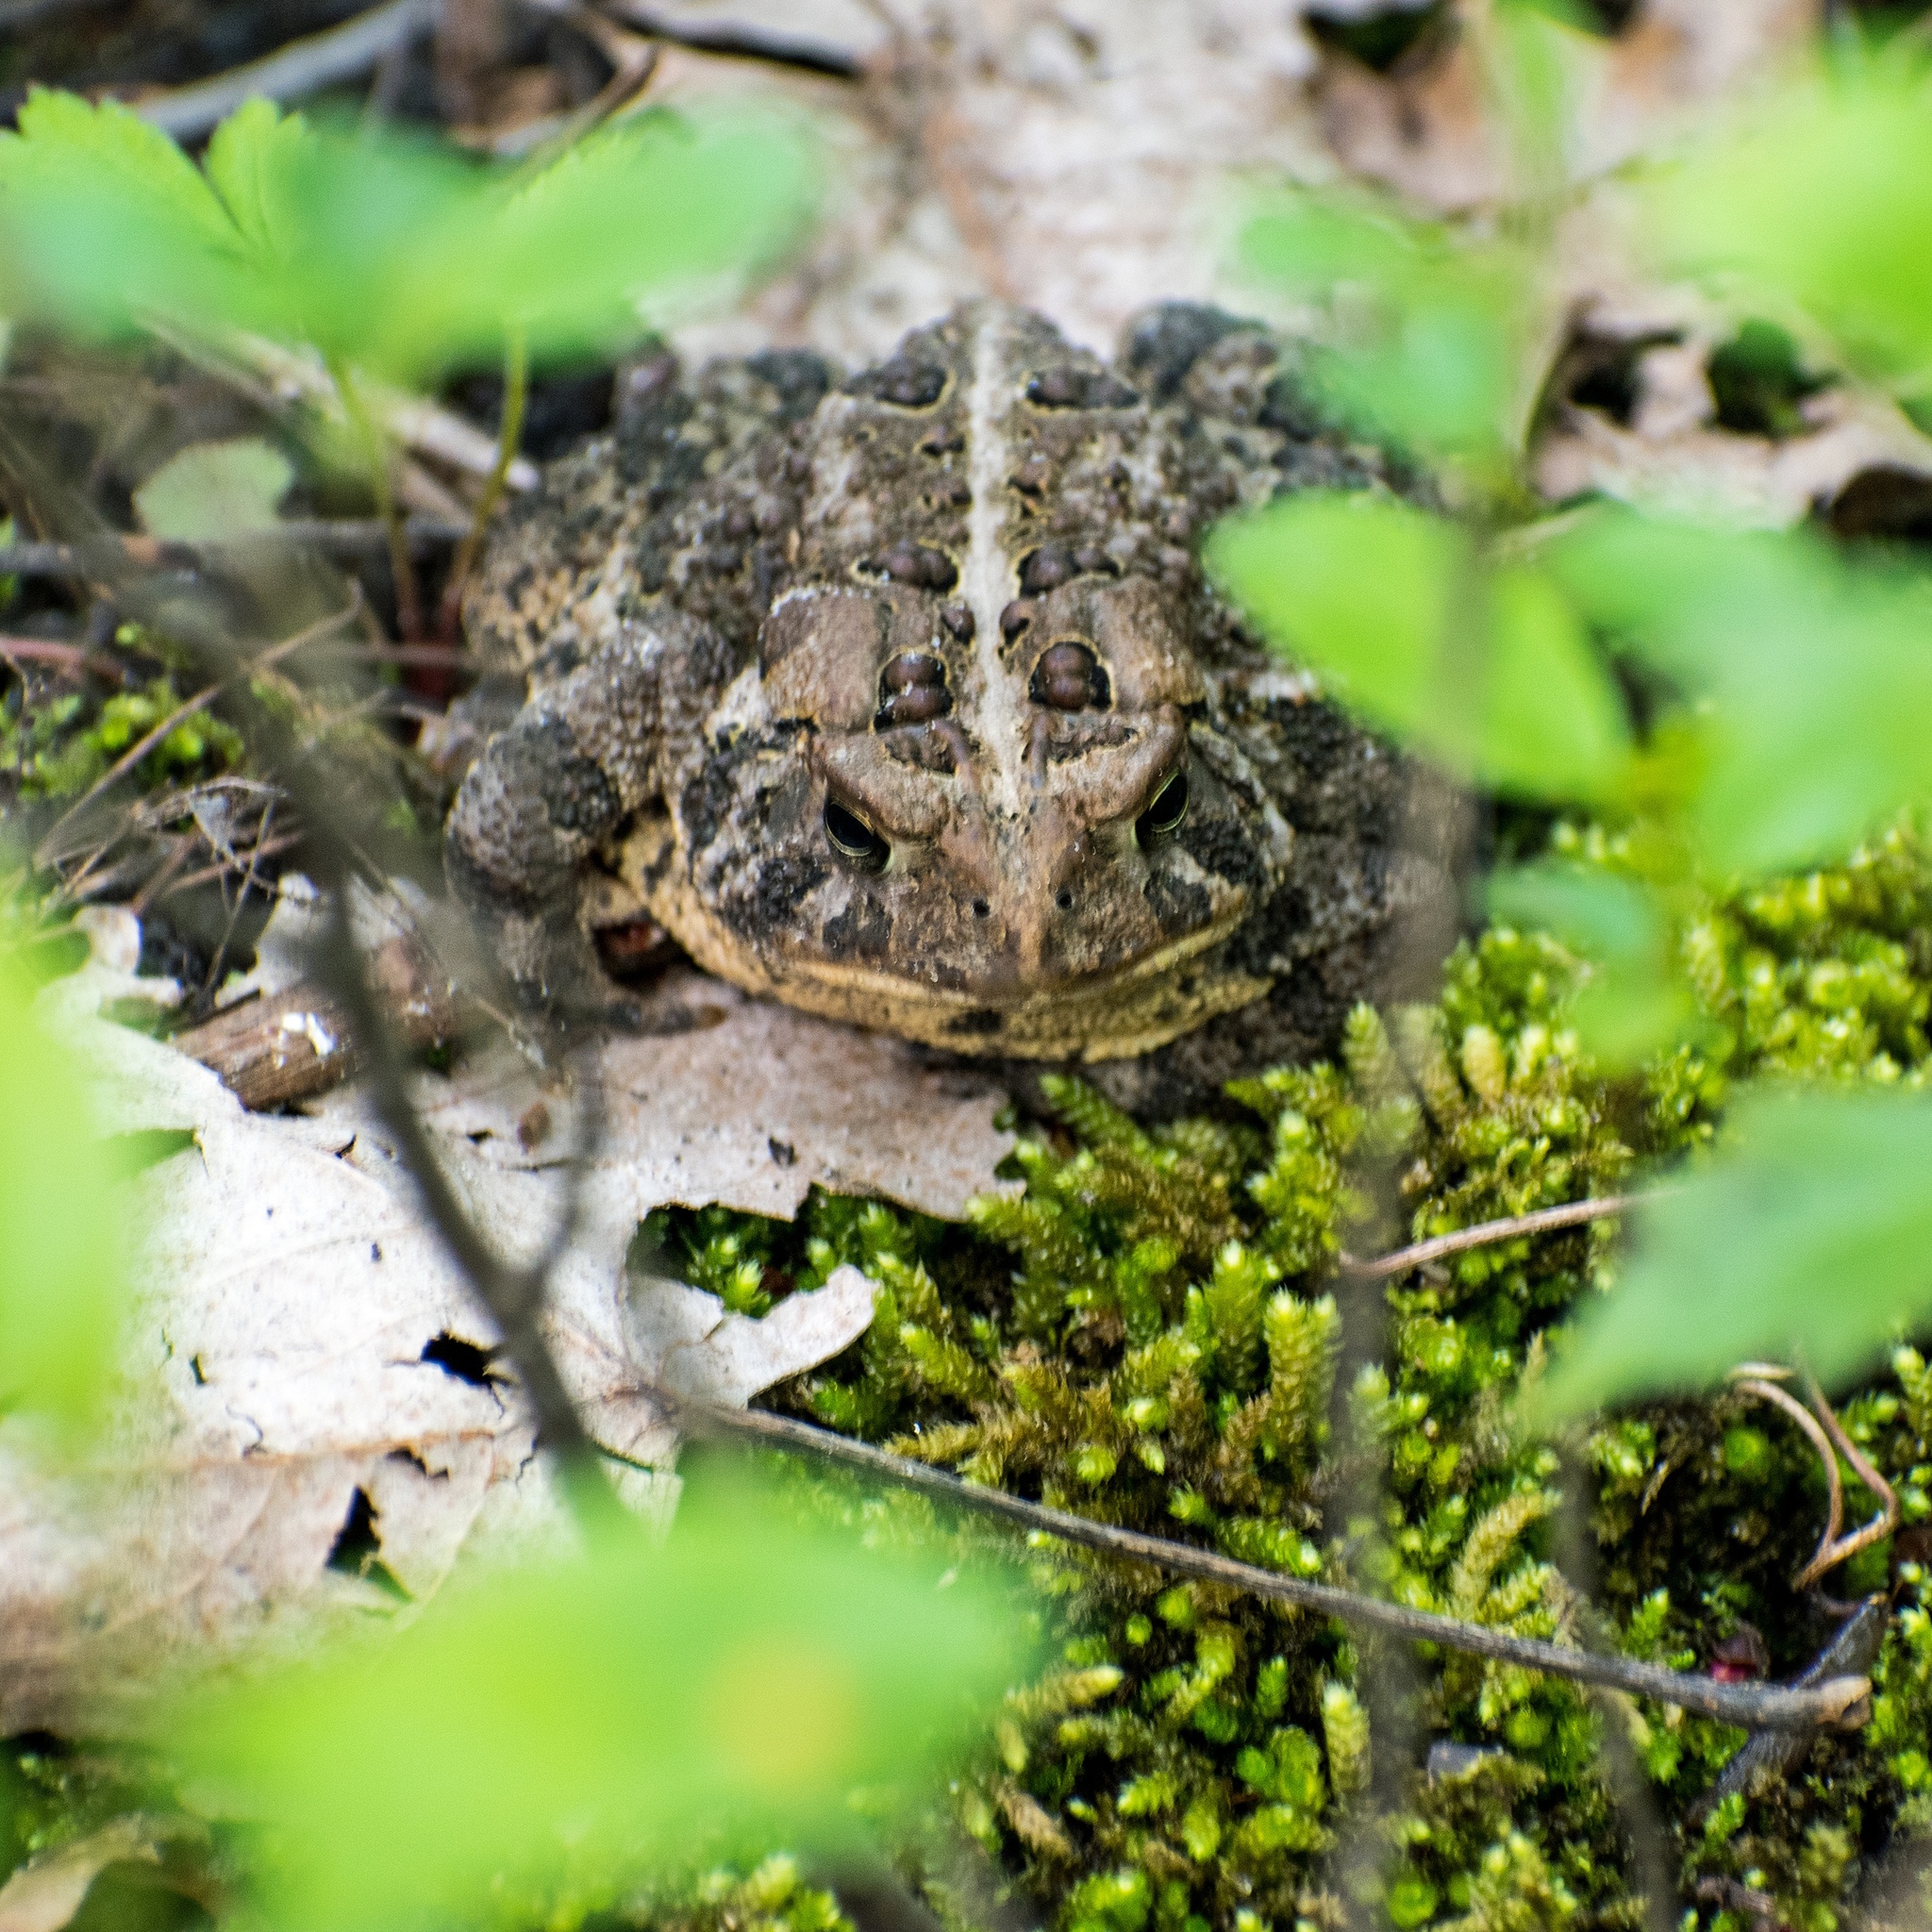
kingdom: Animalia
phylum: Chordata
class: Amphibia
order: Anura
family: Bufonidae
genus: Anaxyrus
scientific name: Anaxyrus americanus
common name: American toad
